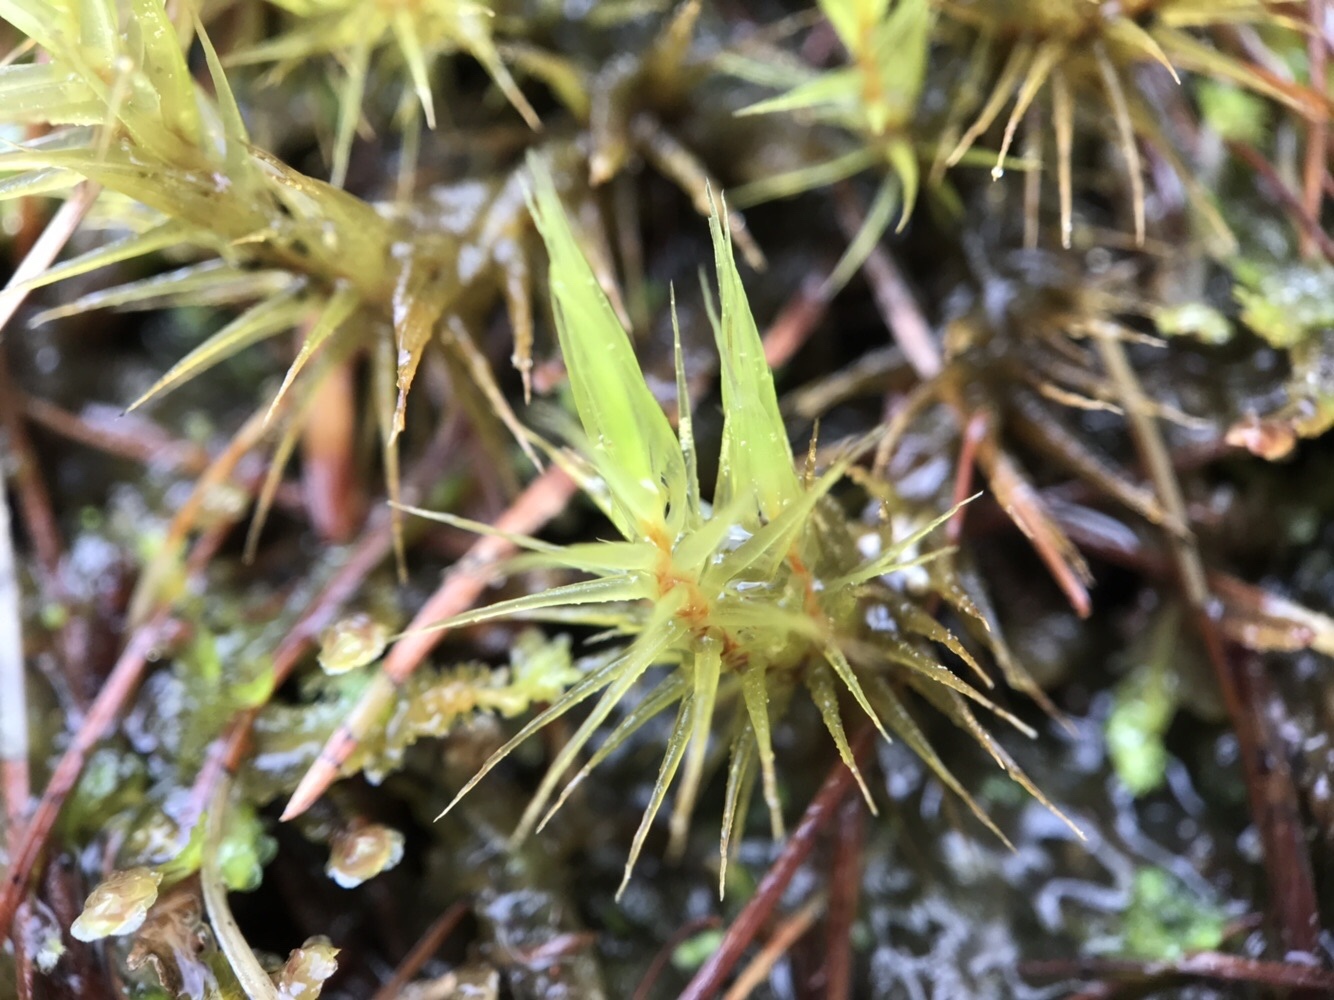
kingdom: Plantae
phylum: Bryophyta
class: Bryopsida
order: Grimmiales
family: Seligeriaceae
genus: Blindia
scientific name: Blindia acuta
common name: Sharp-leaved blind's moss
